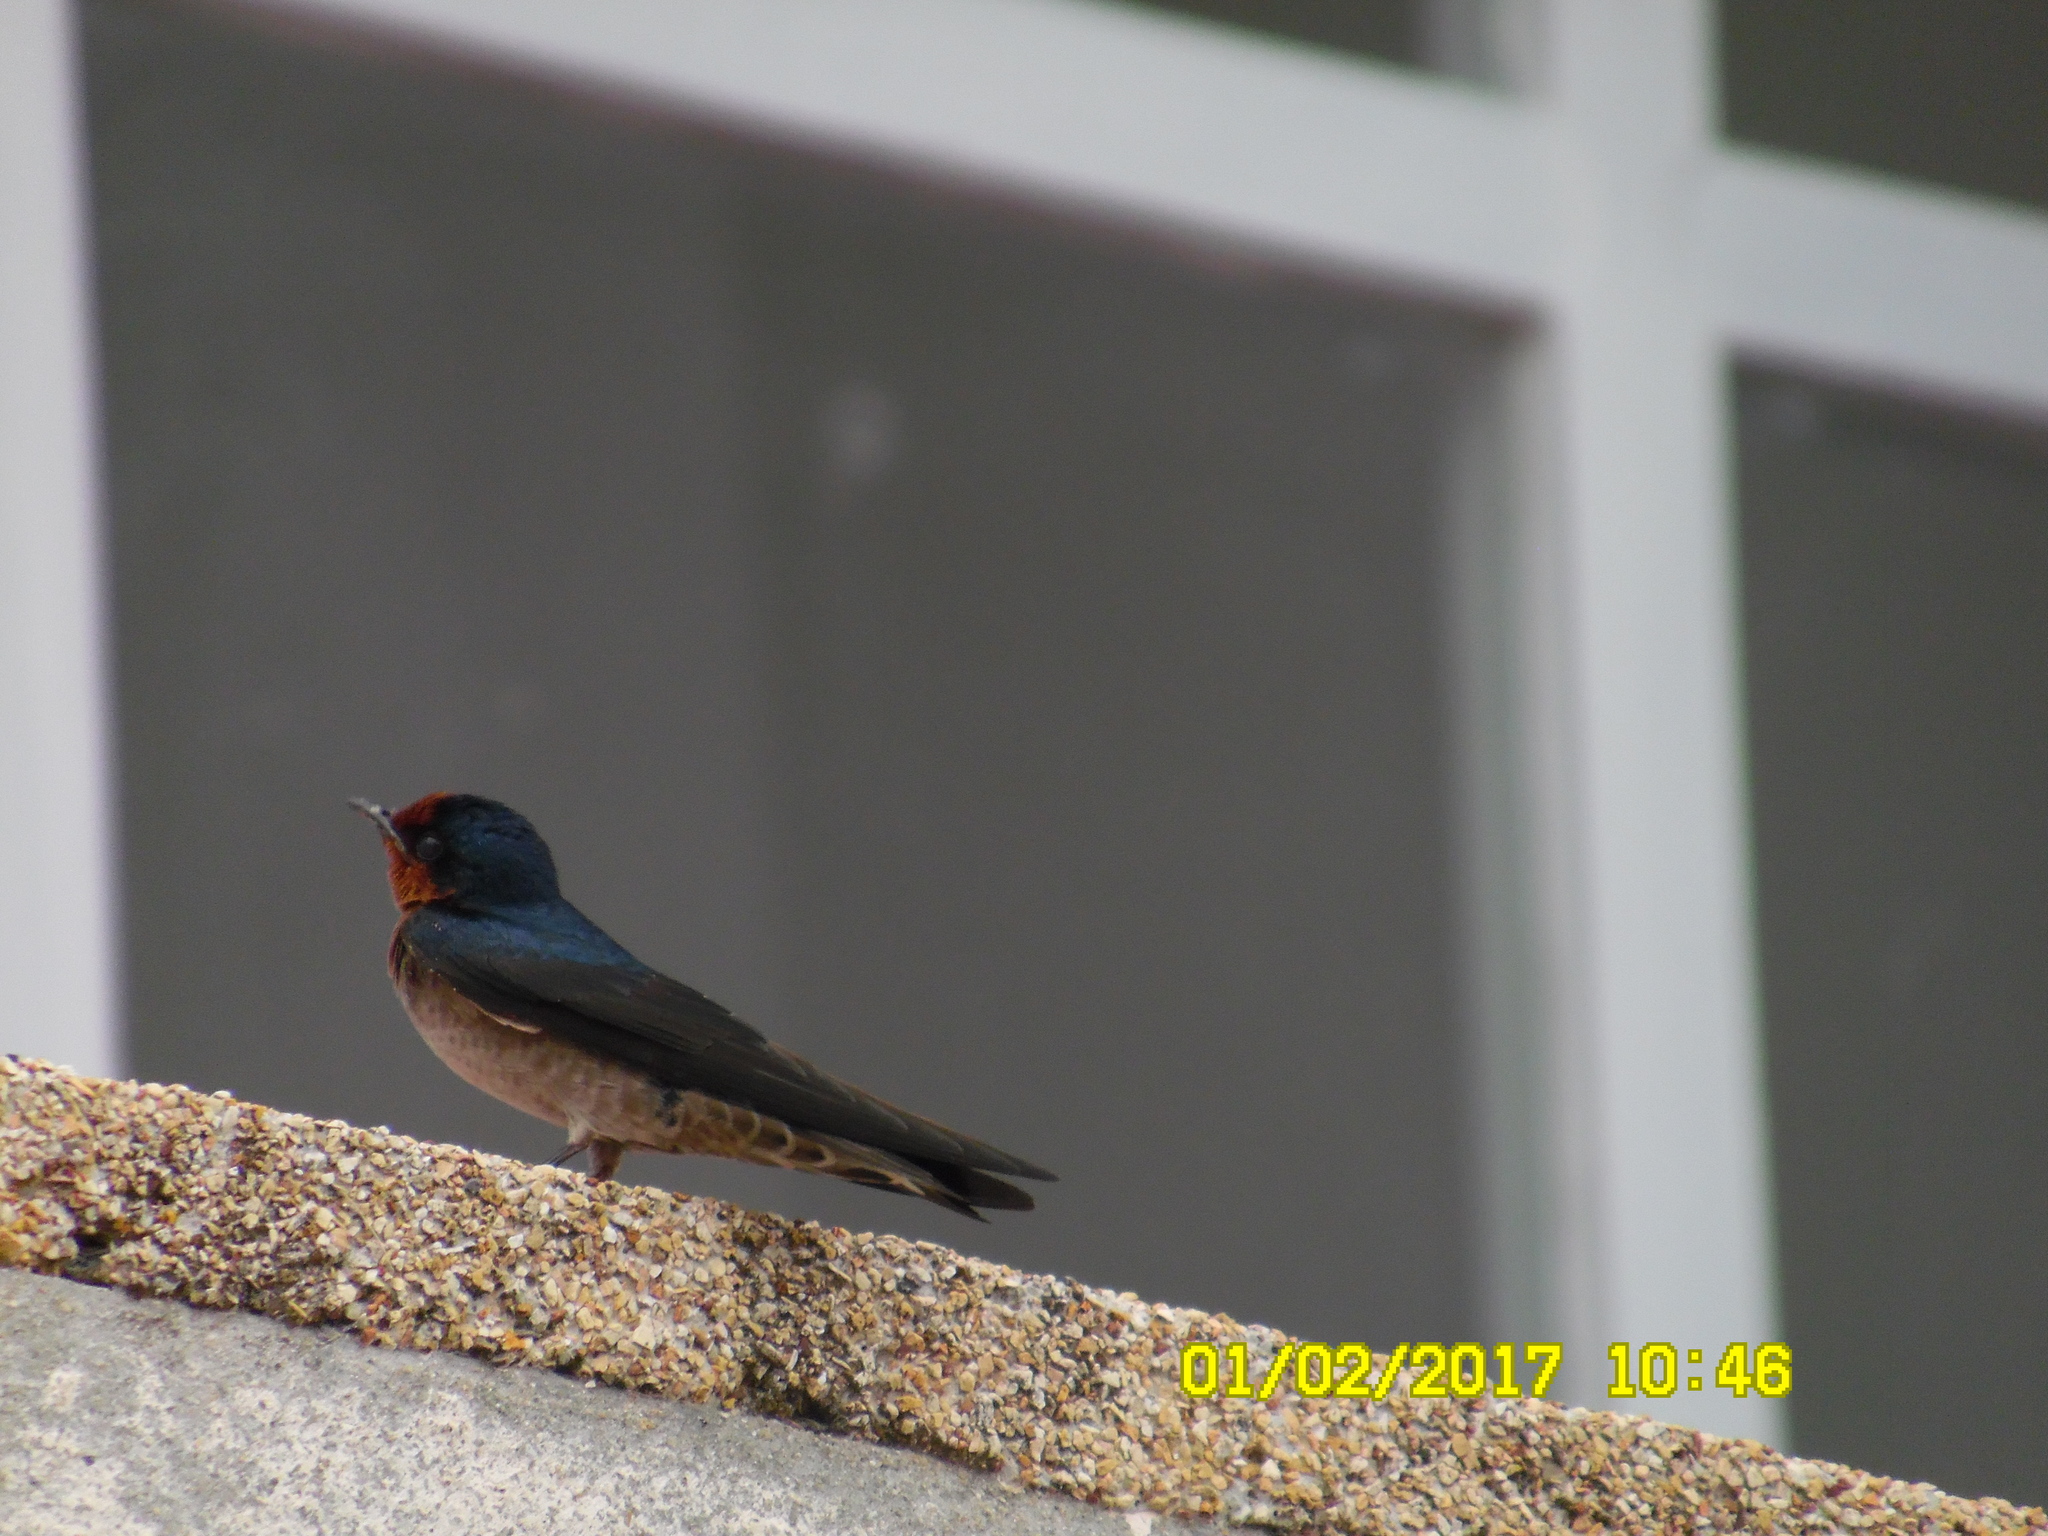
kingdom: Animalia
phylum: Chordata
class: Aves
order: Passeriformes
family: Hirundinidae
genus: Hirundo
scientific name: Hirundo tahitica
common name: Pacific swallow
